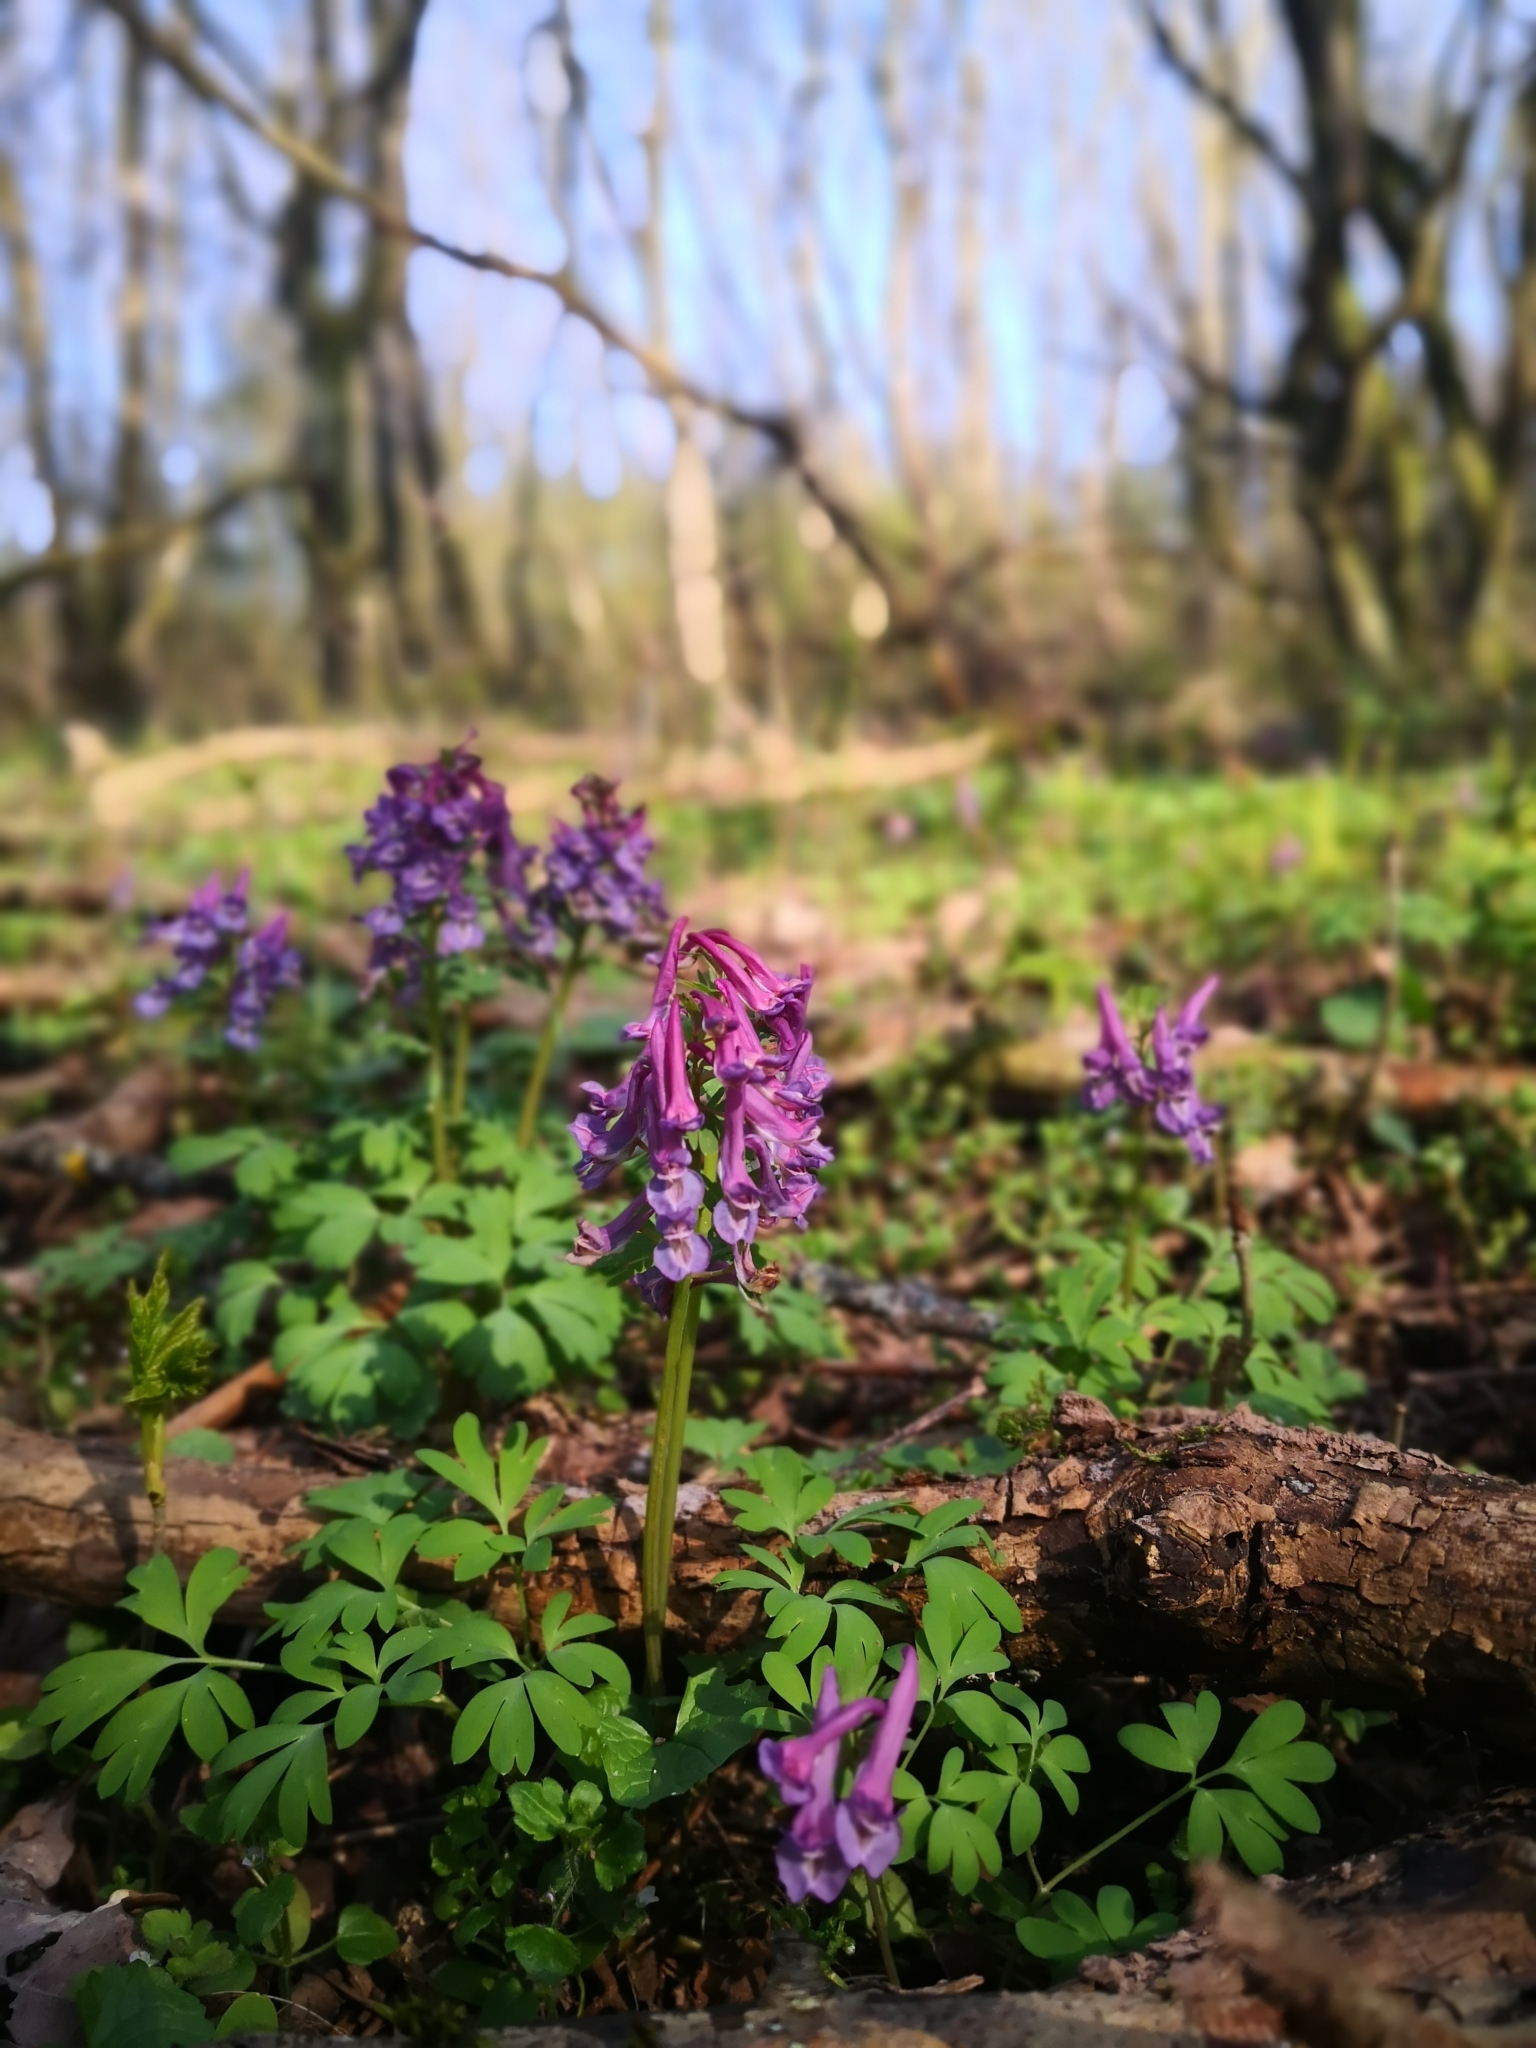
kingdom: Plantae
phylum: Tracheophyta
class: Magnoliopsida
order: Ranunculales
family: Papaveraceae
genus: Corydalis
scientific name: Corydalis solida
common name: Bird-in-a-bush
